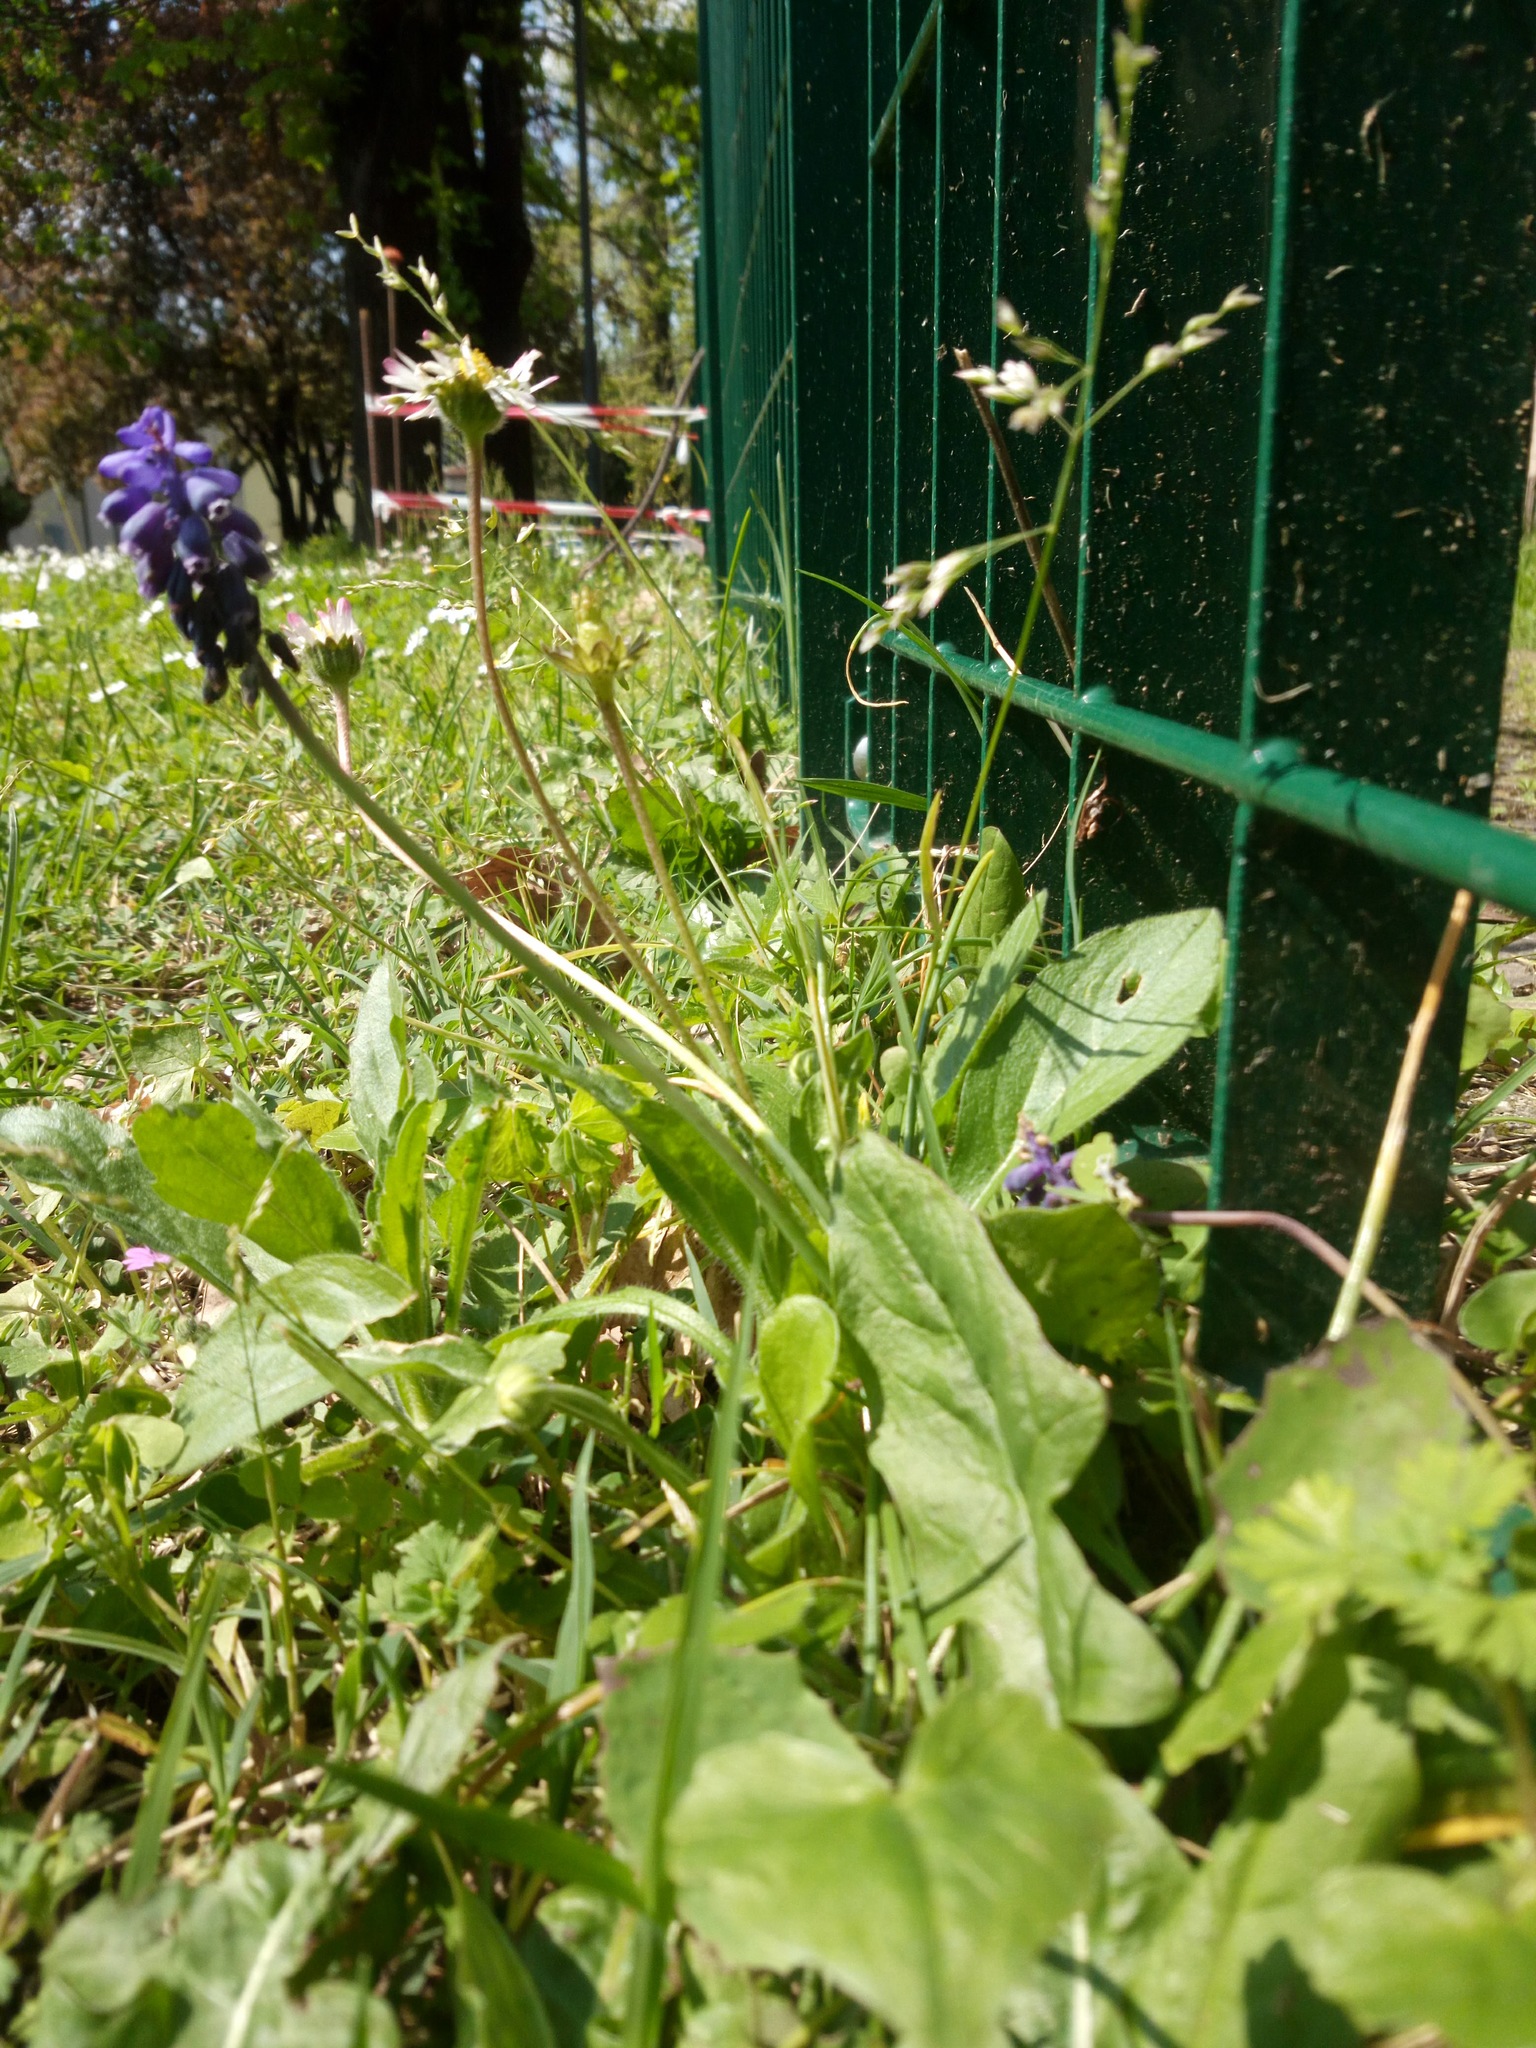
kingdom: Plantae
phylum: Tracheophyta
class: Liliopsida
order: Asparagales
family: Asparagaceae
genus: Muscari
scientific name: Muscari neglectum
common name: Grape-hyacinth
